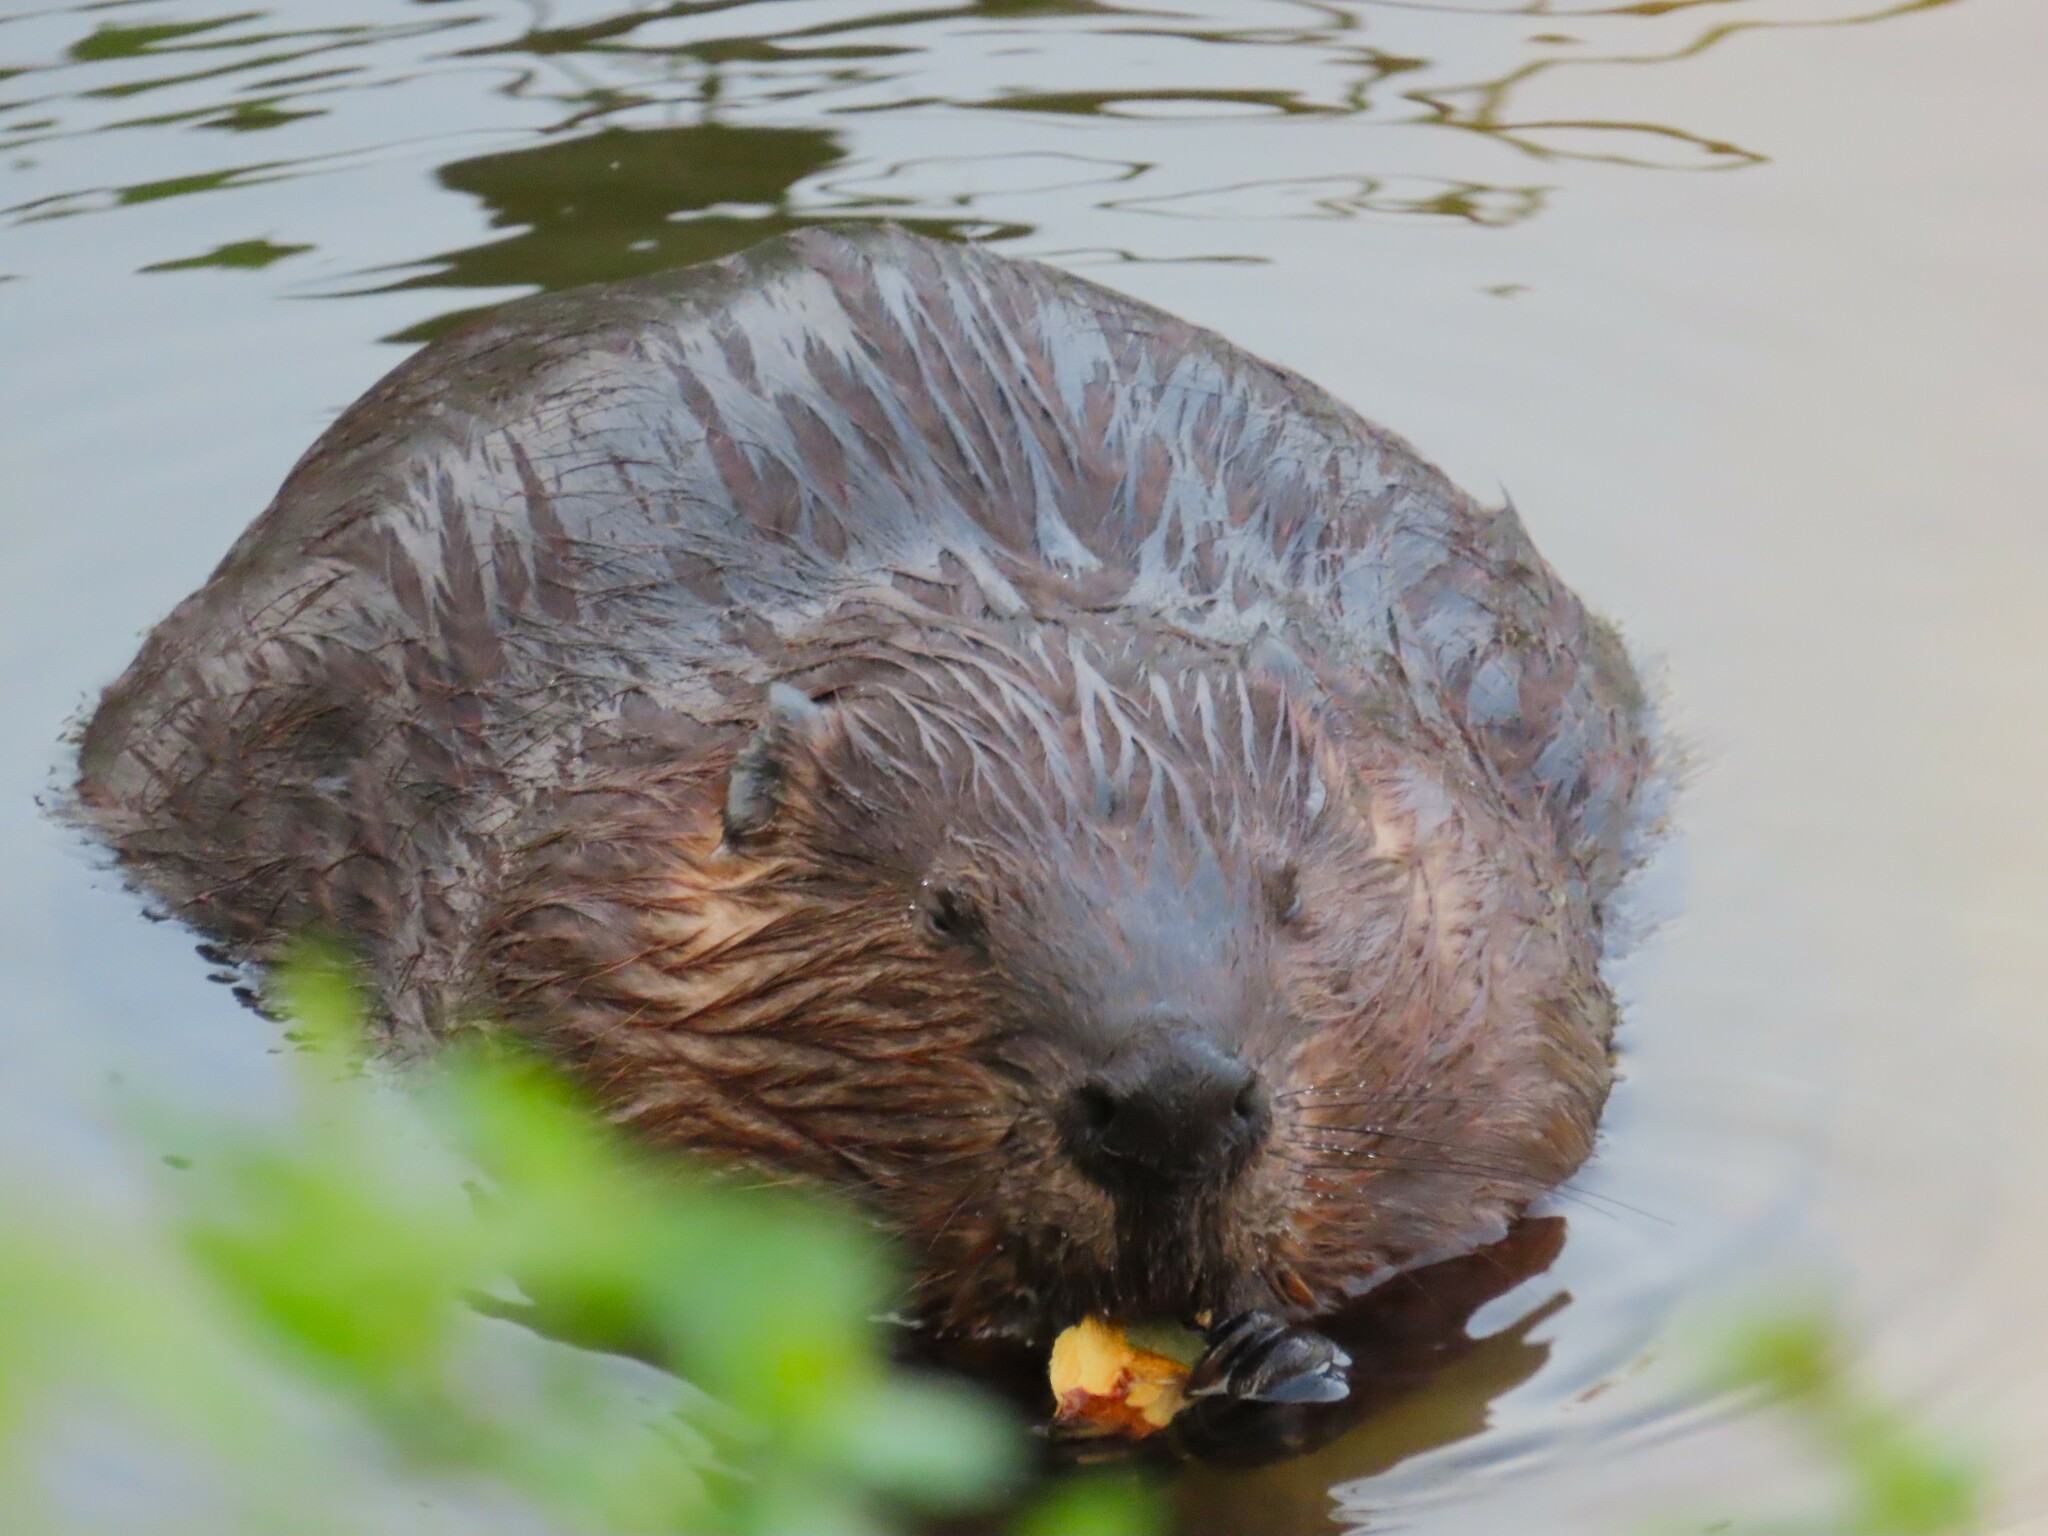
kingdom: Animalia
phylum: Chordata
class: Mammalia
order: Rodentia
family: Castoridae
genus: Castor
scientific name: Castor canadensis
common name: American beaver
